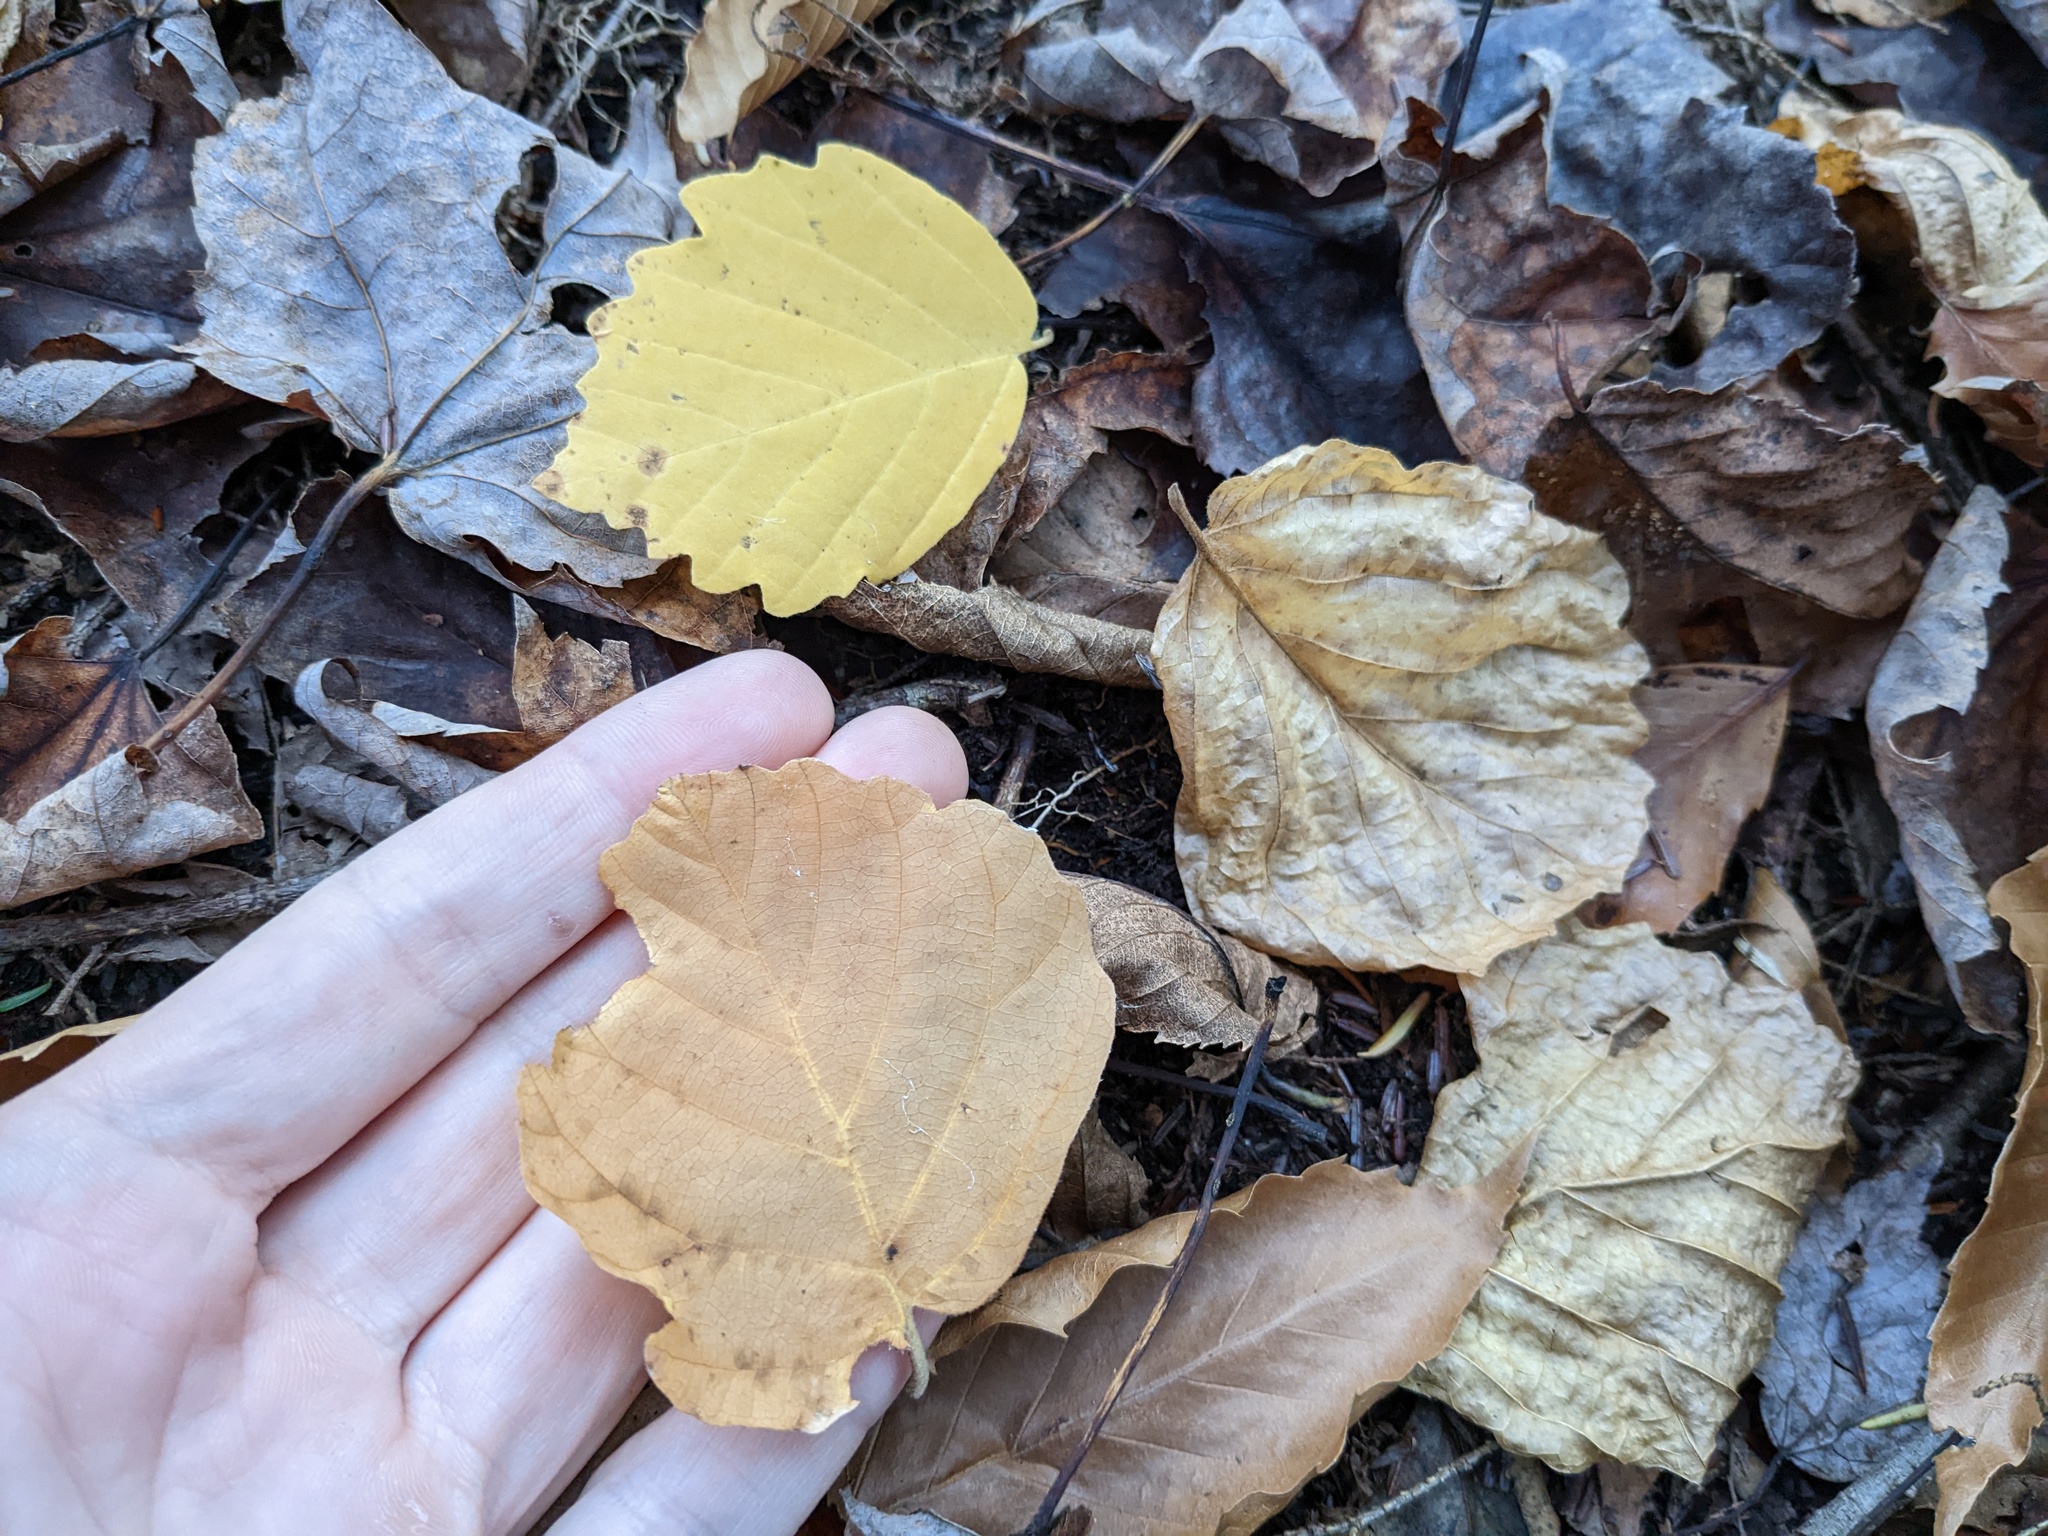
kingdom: Plantae
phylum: Tracheophyta
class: Magnoliopsida
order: Saxifragales
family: Hamamelidaceae
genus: Hamamelis
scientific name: Hamamelis virginiana
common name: Witch-hazel
